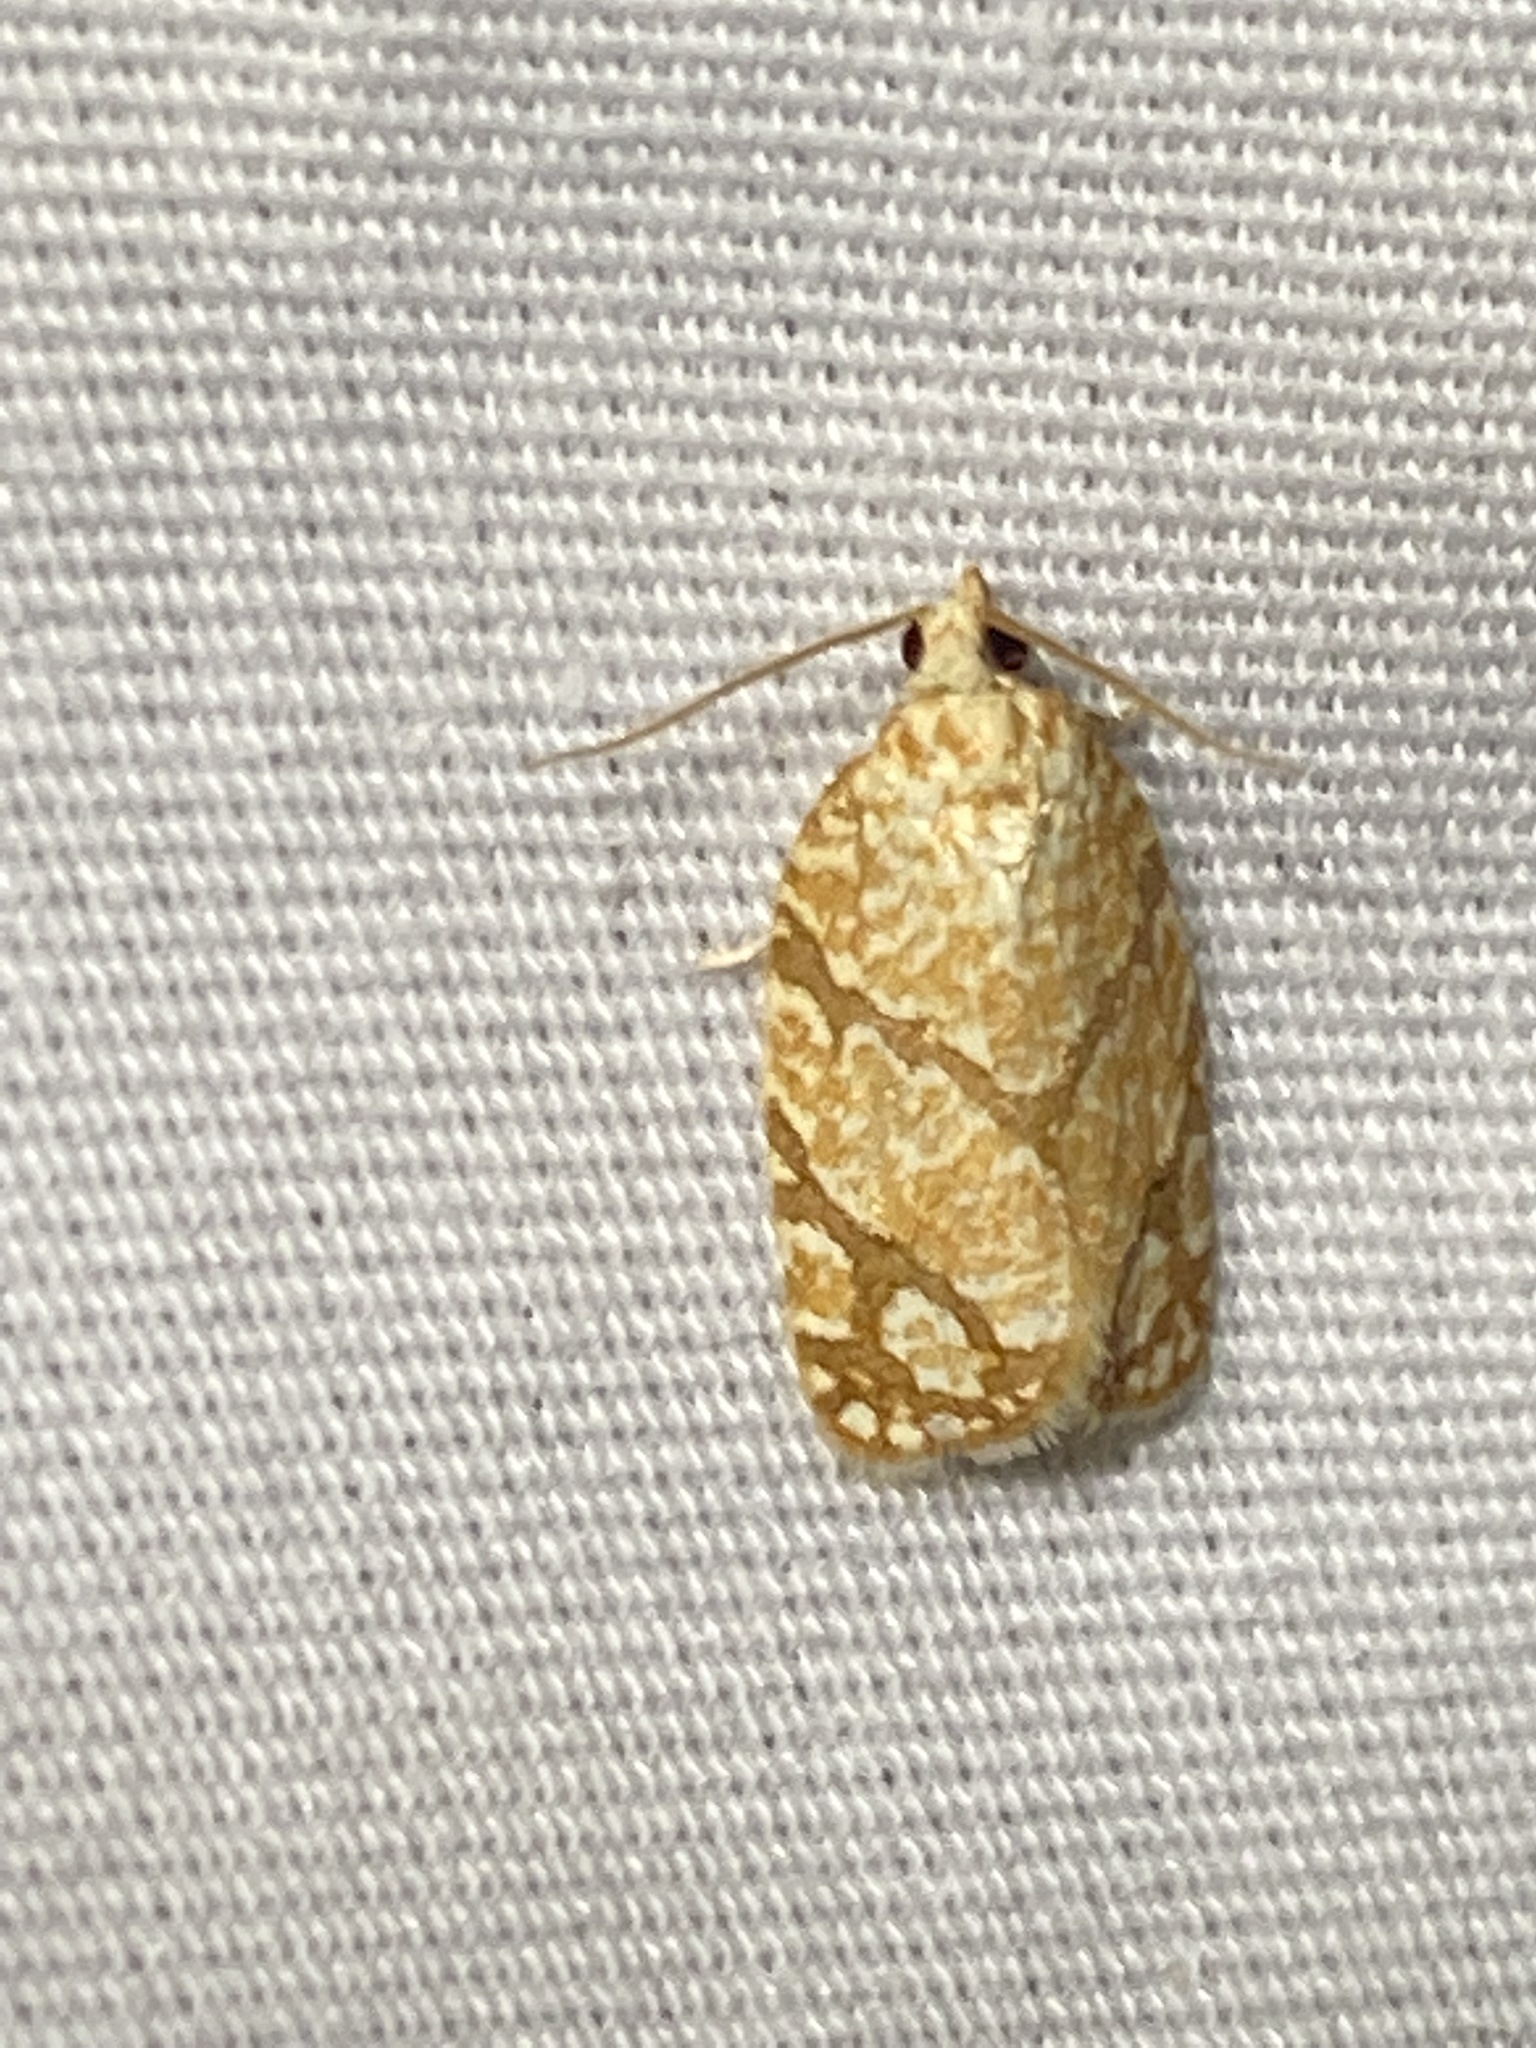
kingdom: Animalia
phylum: Arthropoda
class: Insecta
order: Lepidoptera
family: Tortricidae
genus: Argyrotaenia
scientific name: Argyrotaenia quercifoliana
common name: Yellow-winged oak leafroller moth
